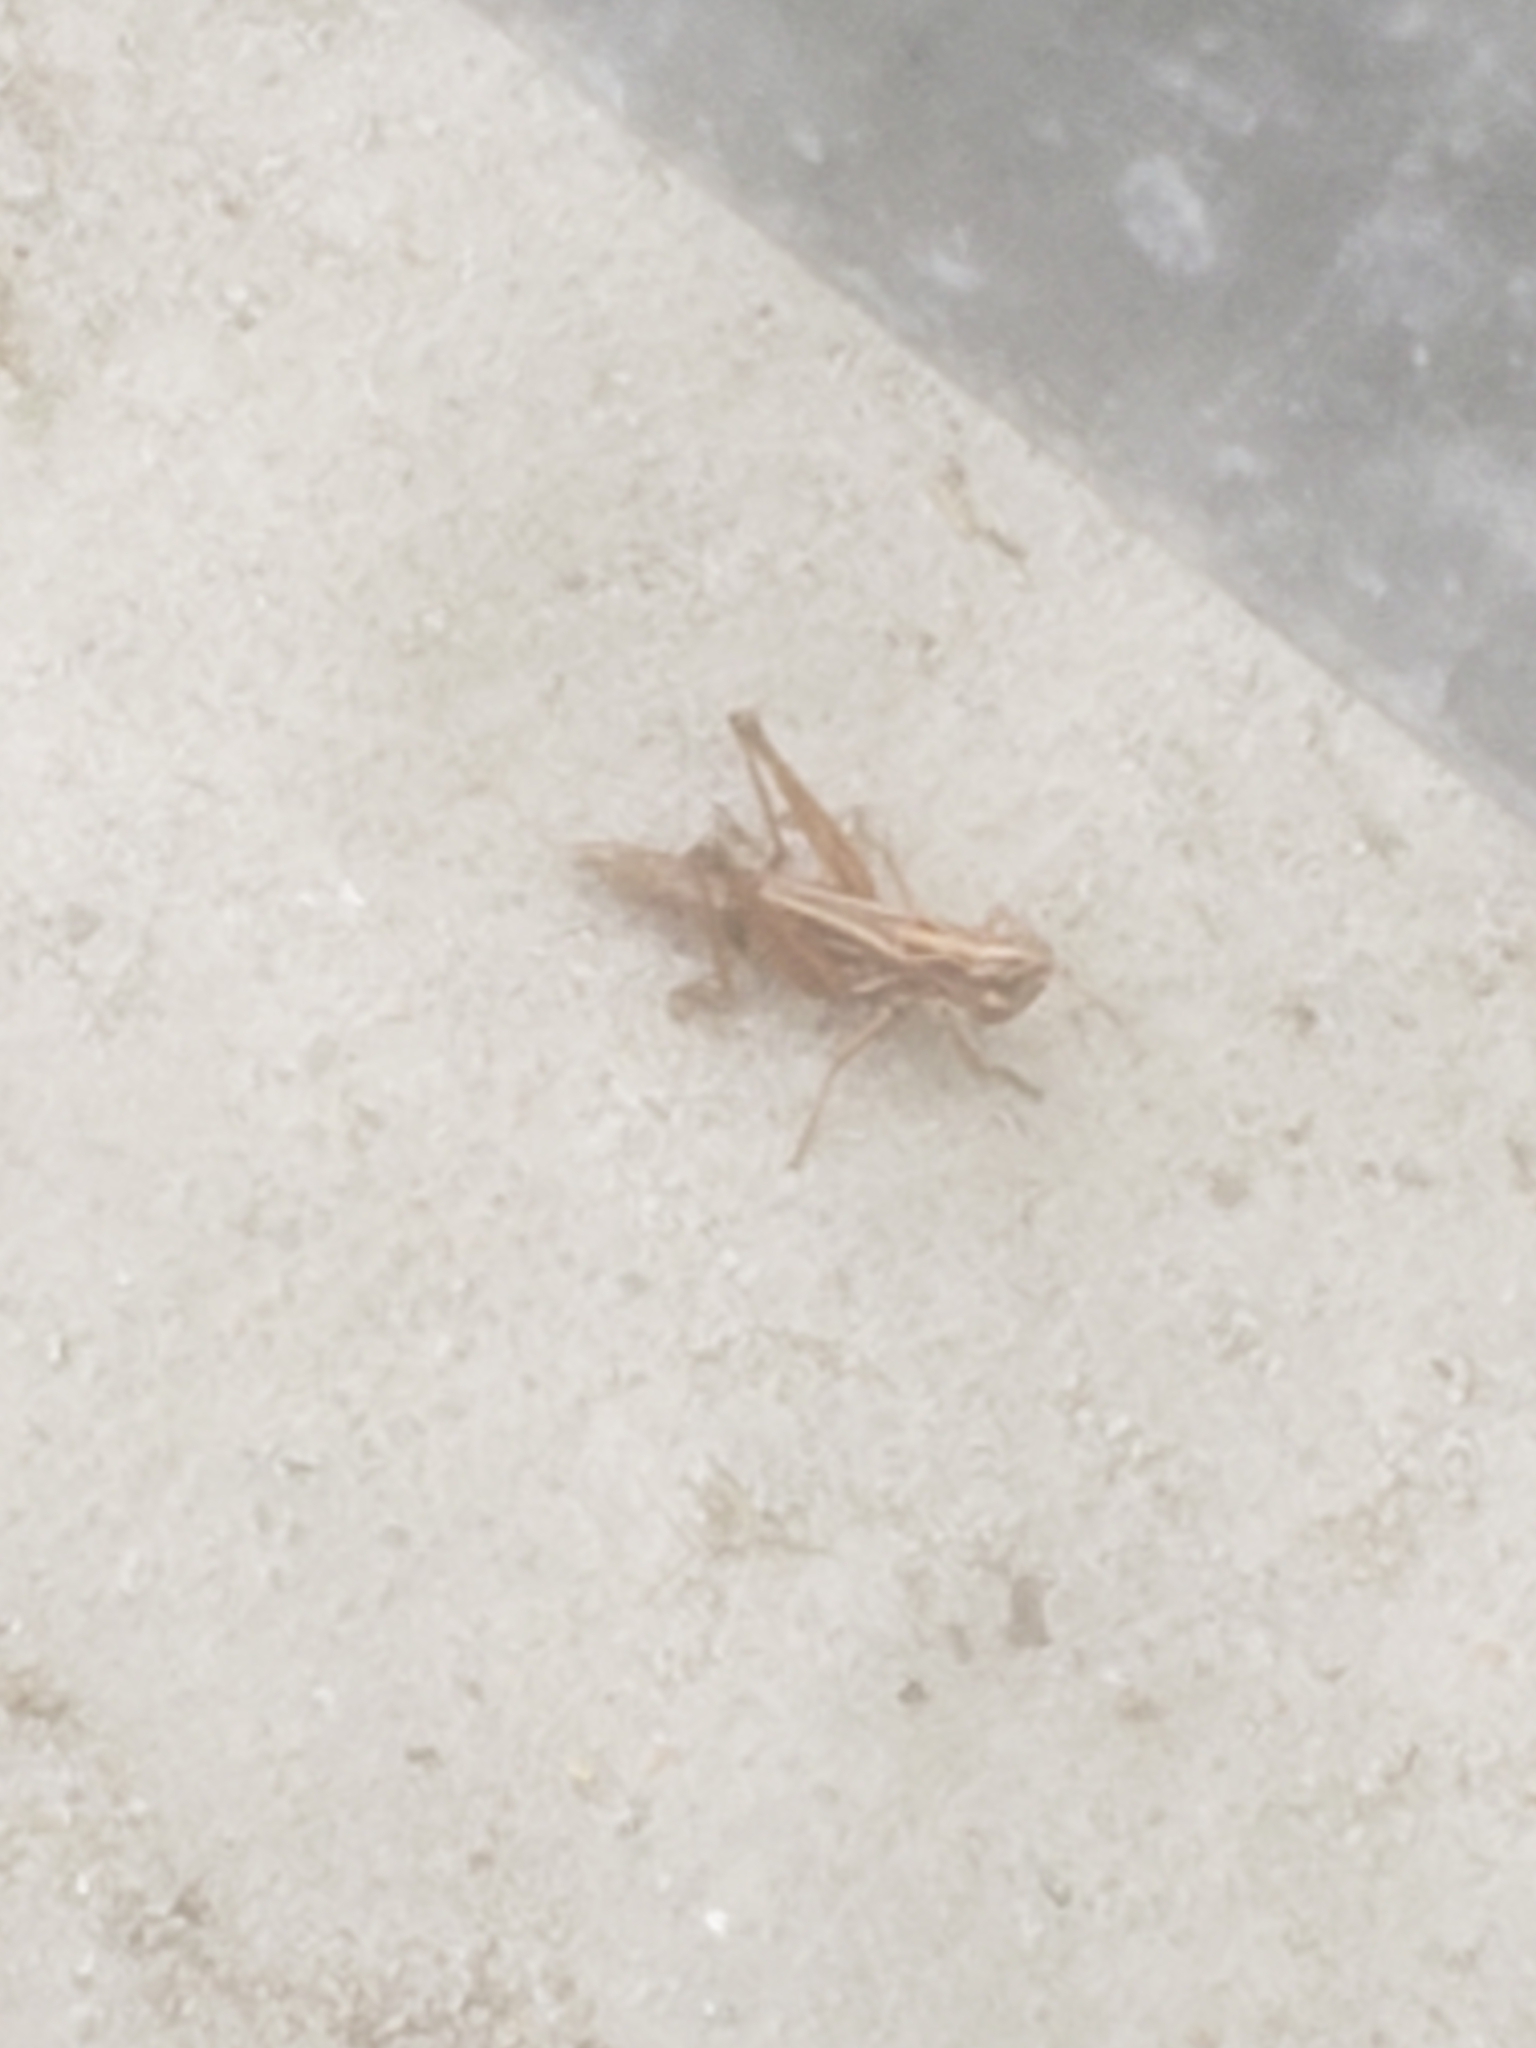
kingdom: Animalia
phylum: Arthropoda
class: Insecta
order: Orthoptera
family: Acrididae
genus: Pseudochorthippus
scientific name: Pseudochorthippus curtipennis
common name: Marsh meadow grasshopper
